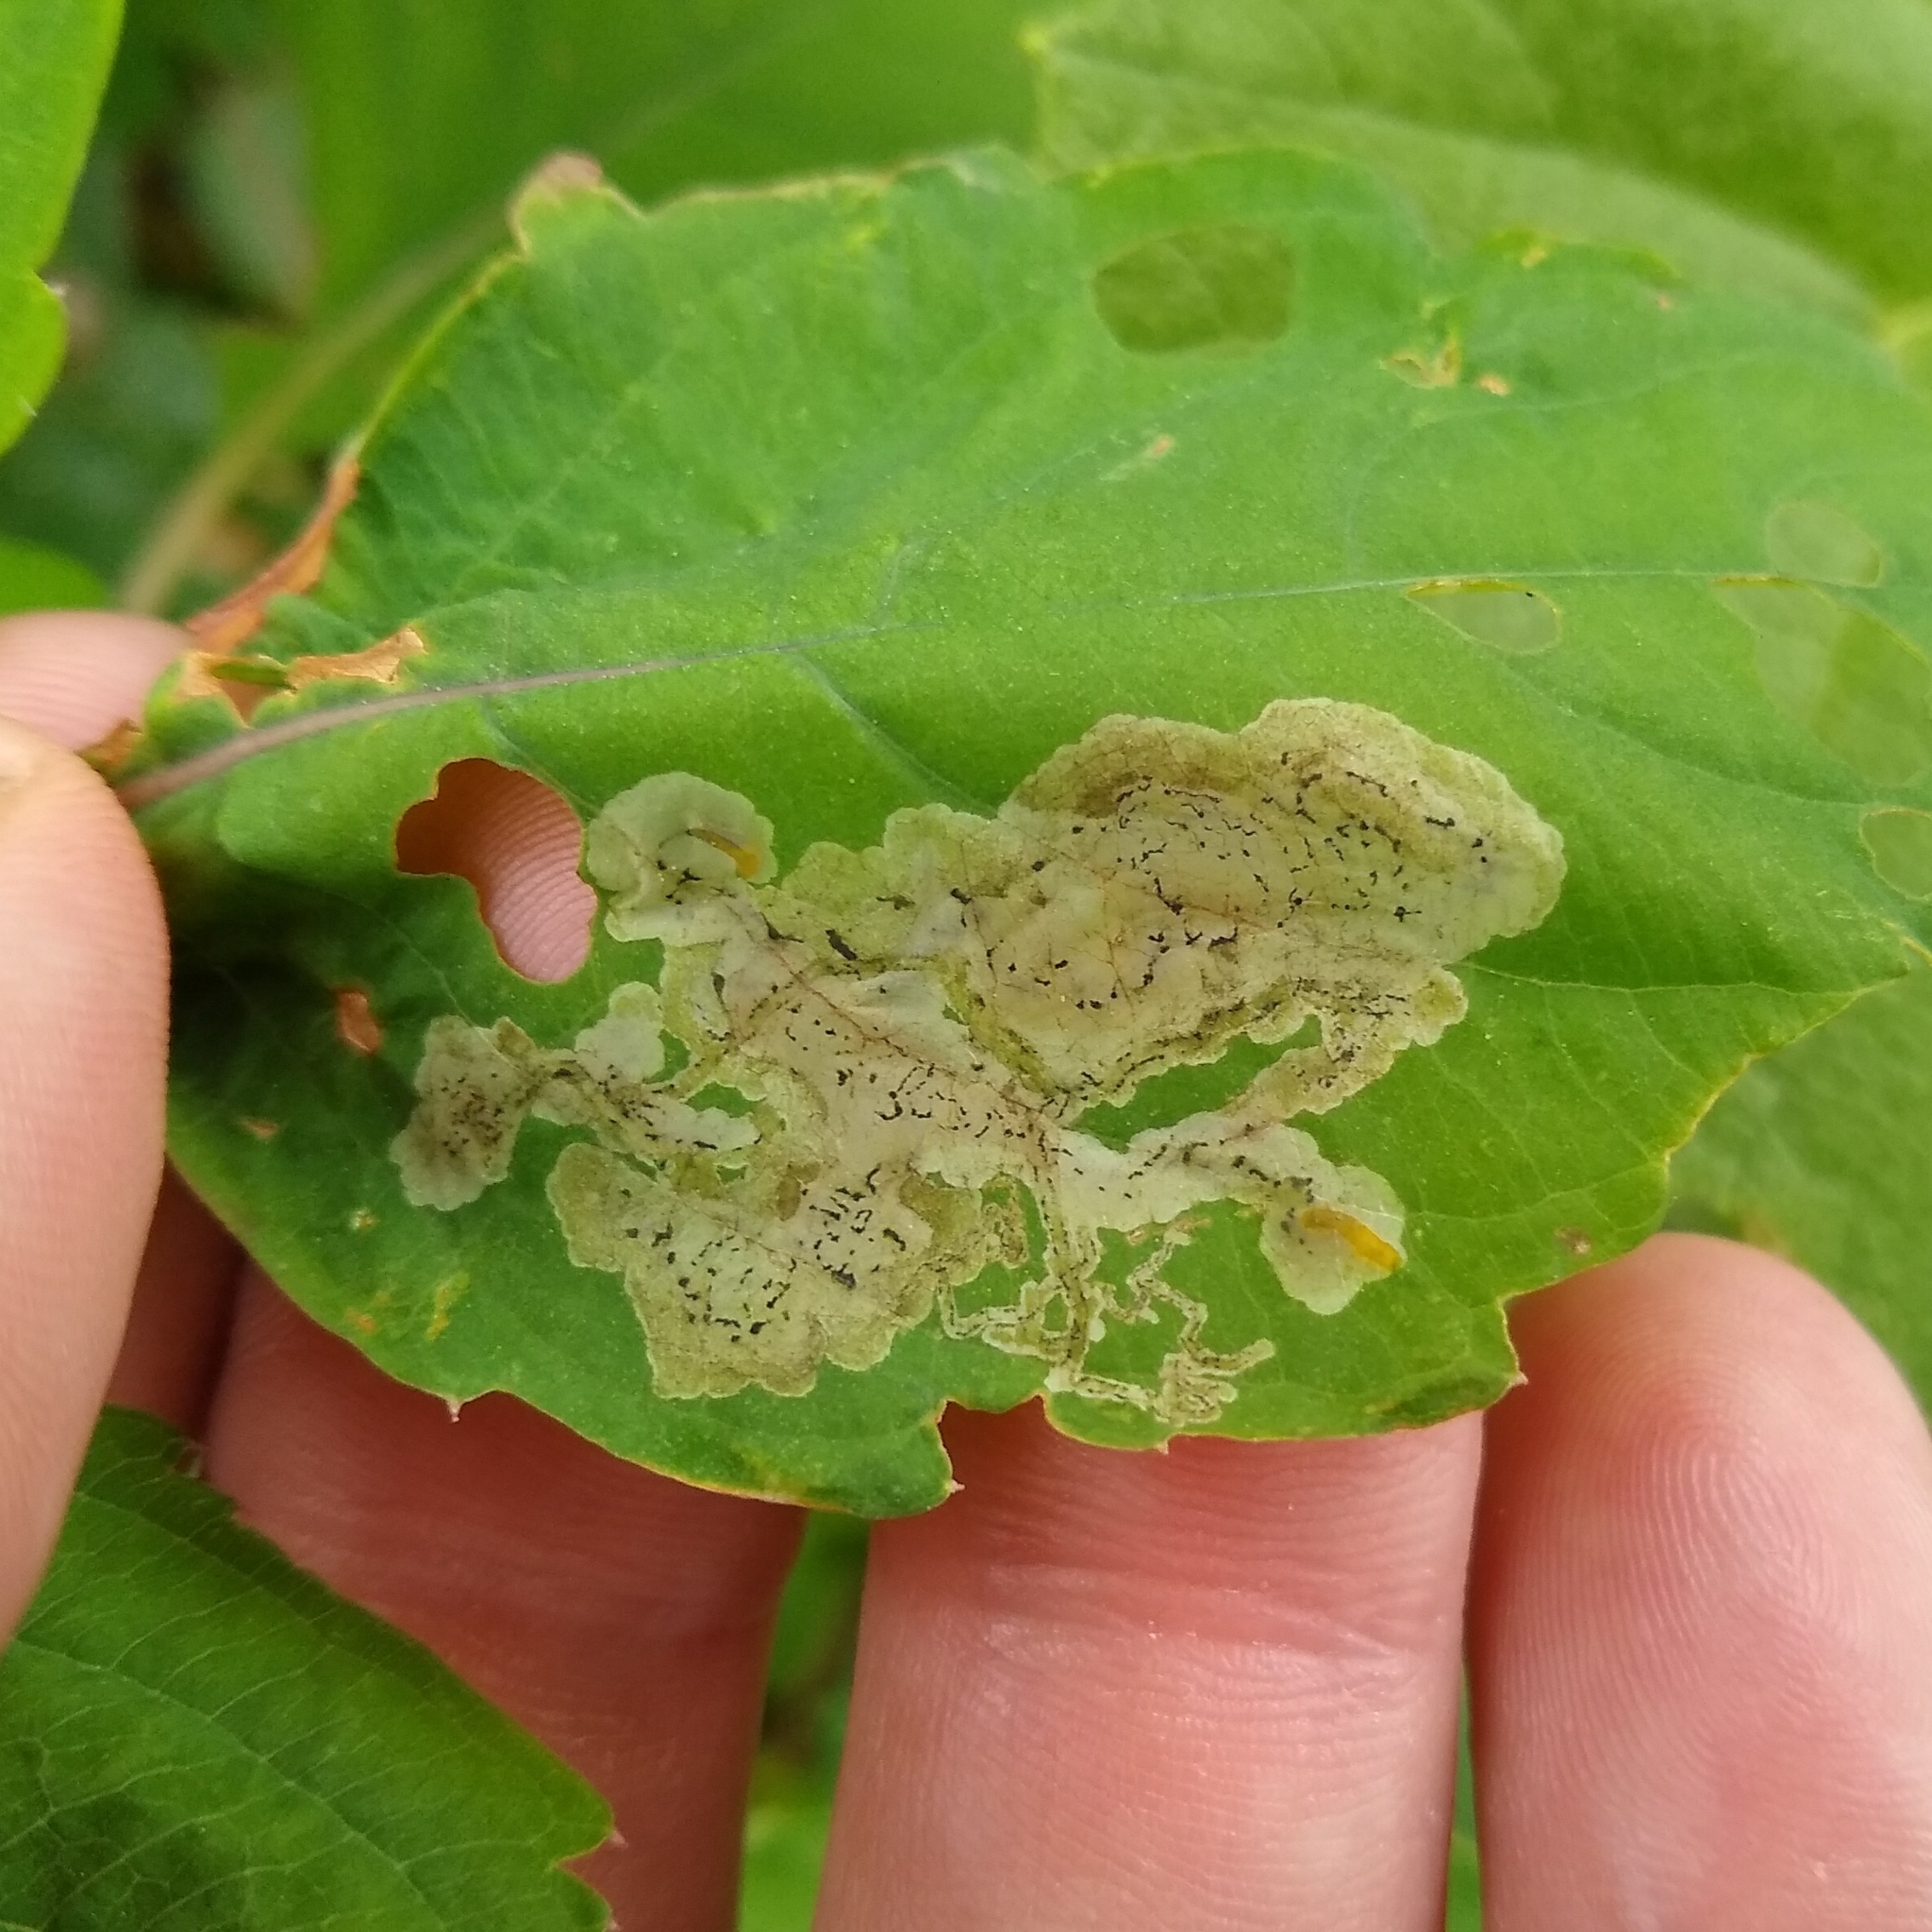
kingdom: Animalia
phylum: Arthropoda
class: Insecta
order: Diptera
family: Agromyzidae
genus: Phytoliriomyza
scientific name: Phytoliriomyza melampyga
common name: Jewelweed leaf-miner fly
